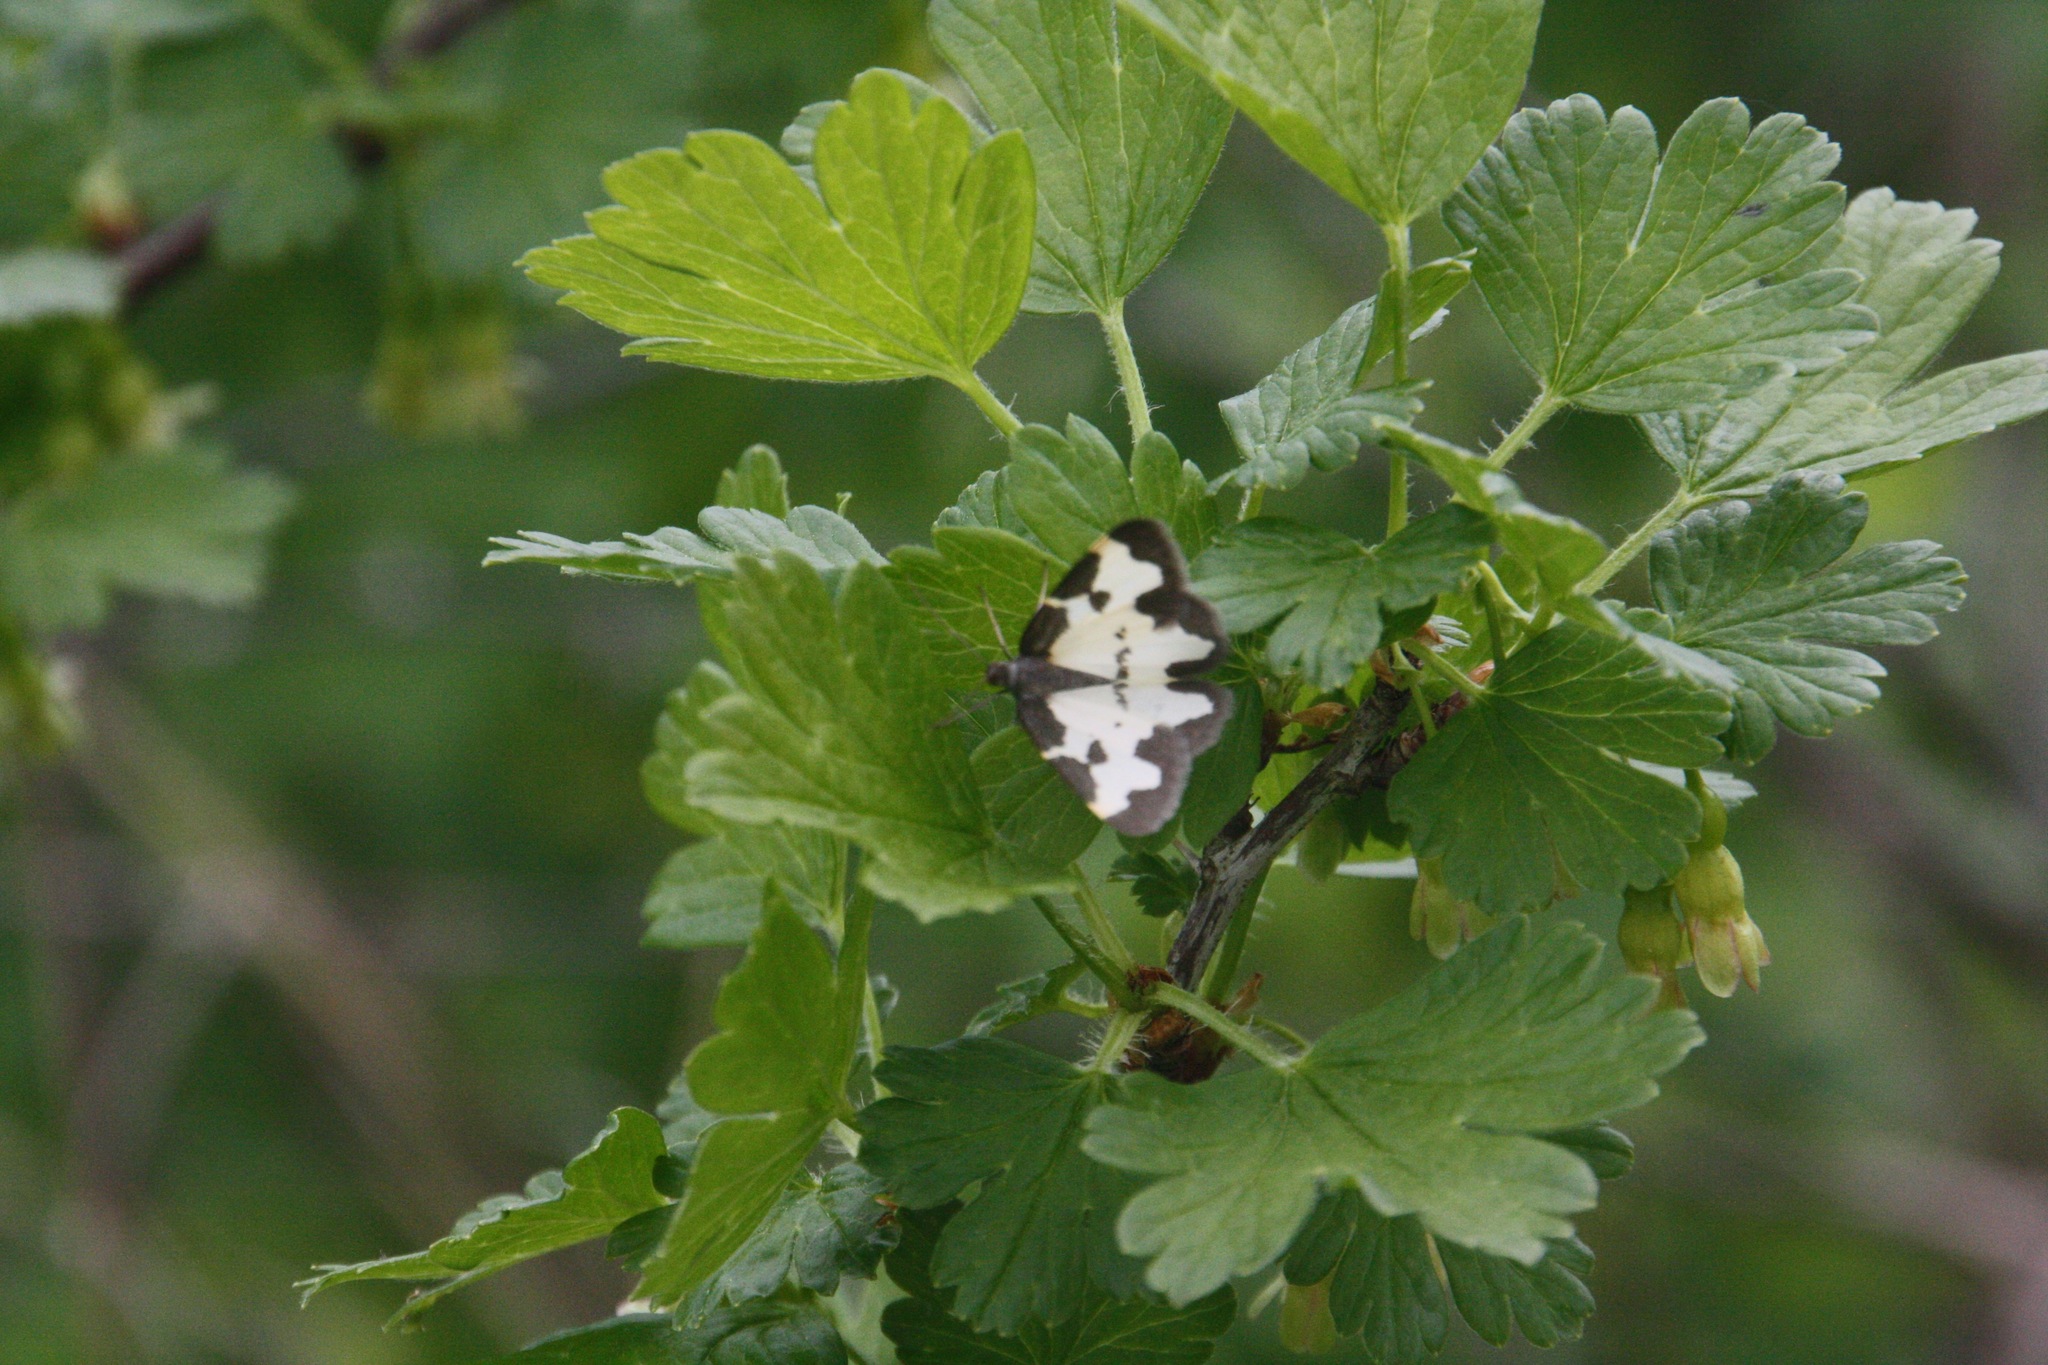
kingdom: Animalia
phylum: Arthropoda
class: Insecta
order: Lepidoptera
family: Geometridae
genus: Lomaspilis
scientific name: Lomaspilis marginata
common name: Clouded border
